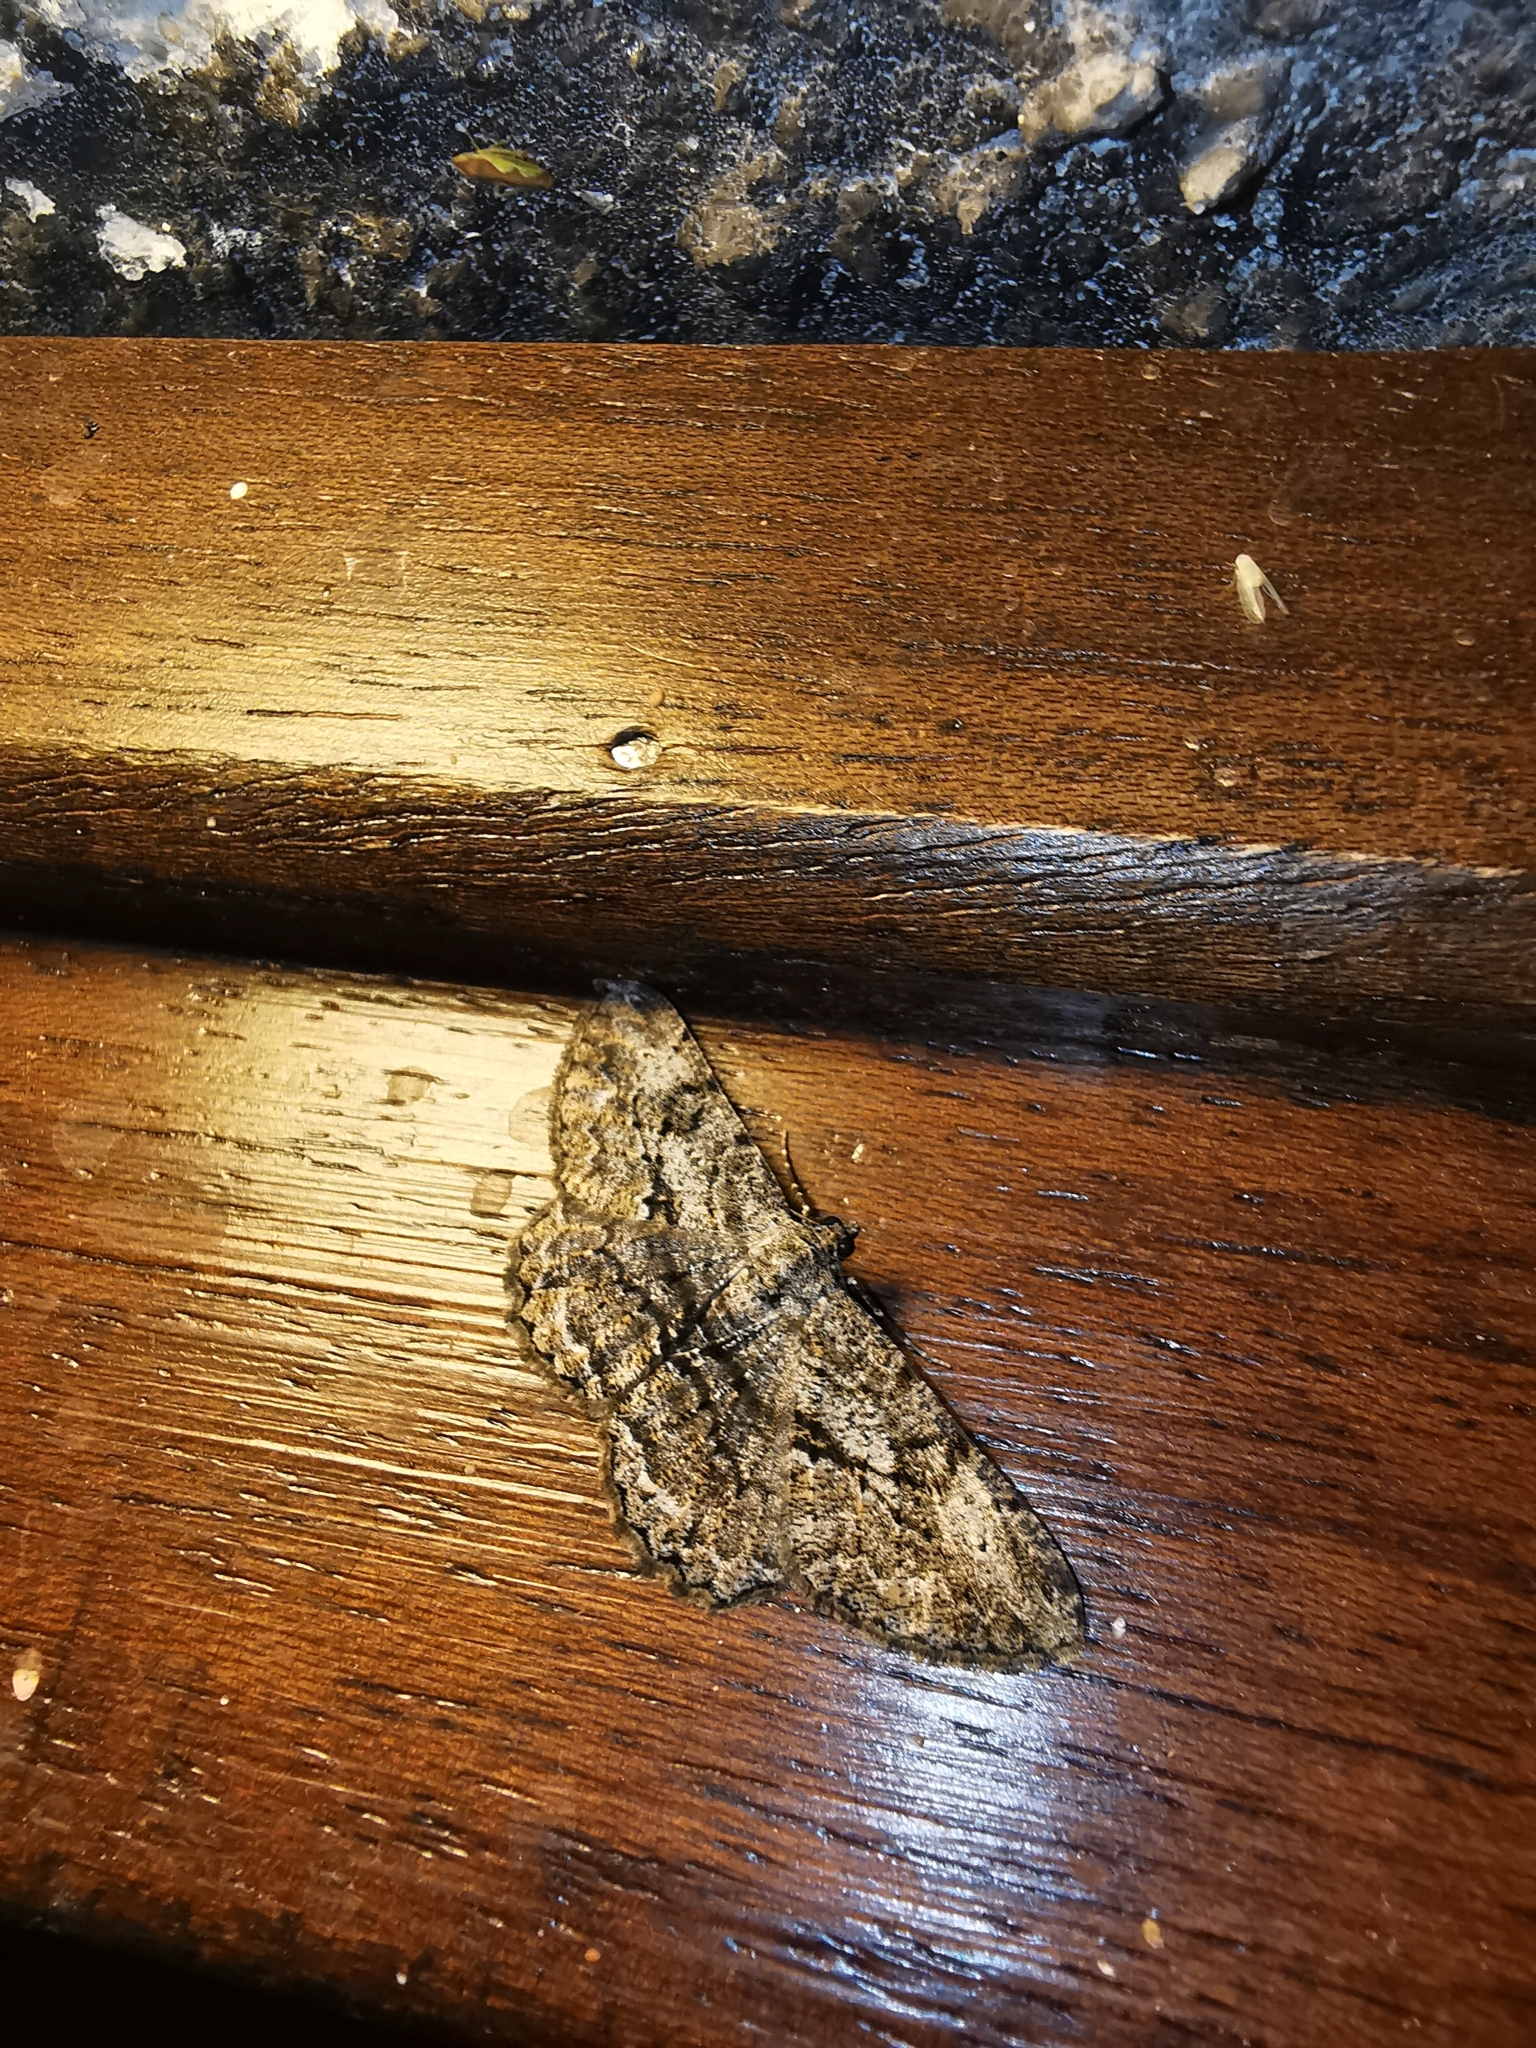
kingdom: Animalia
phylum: Arthropoda
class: Insecta
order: Lepidoptera
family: Geometridae
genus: Peribatodes
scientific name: Peribatodes rhomboidaria
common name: Willow beauty
